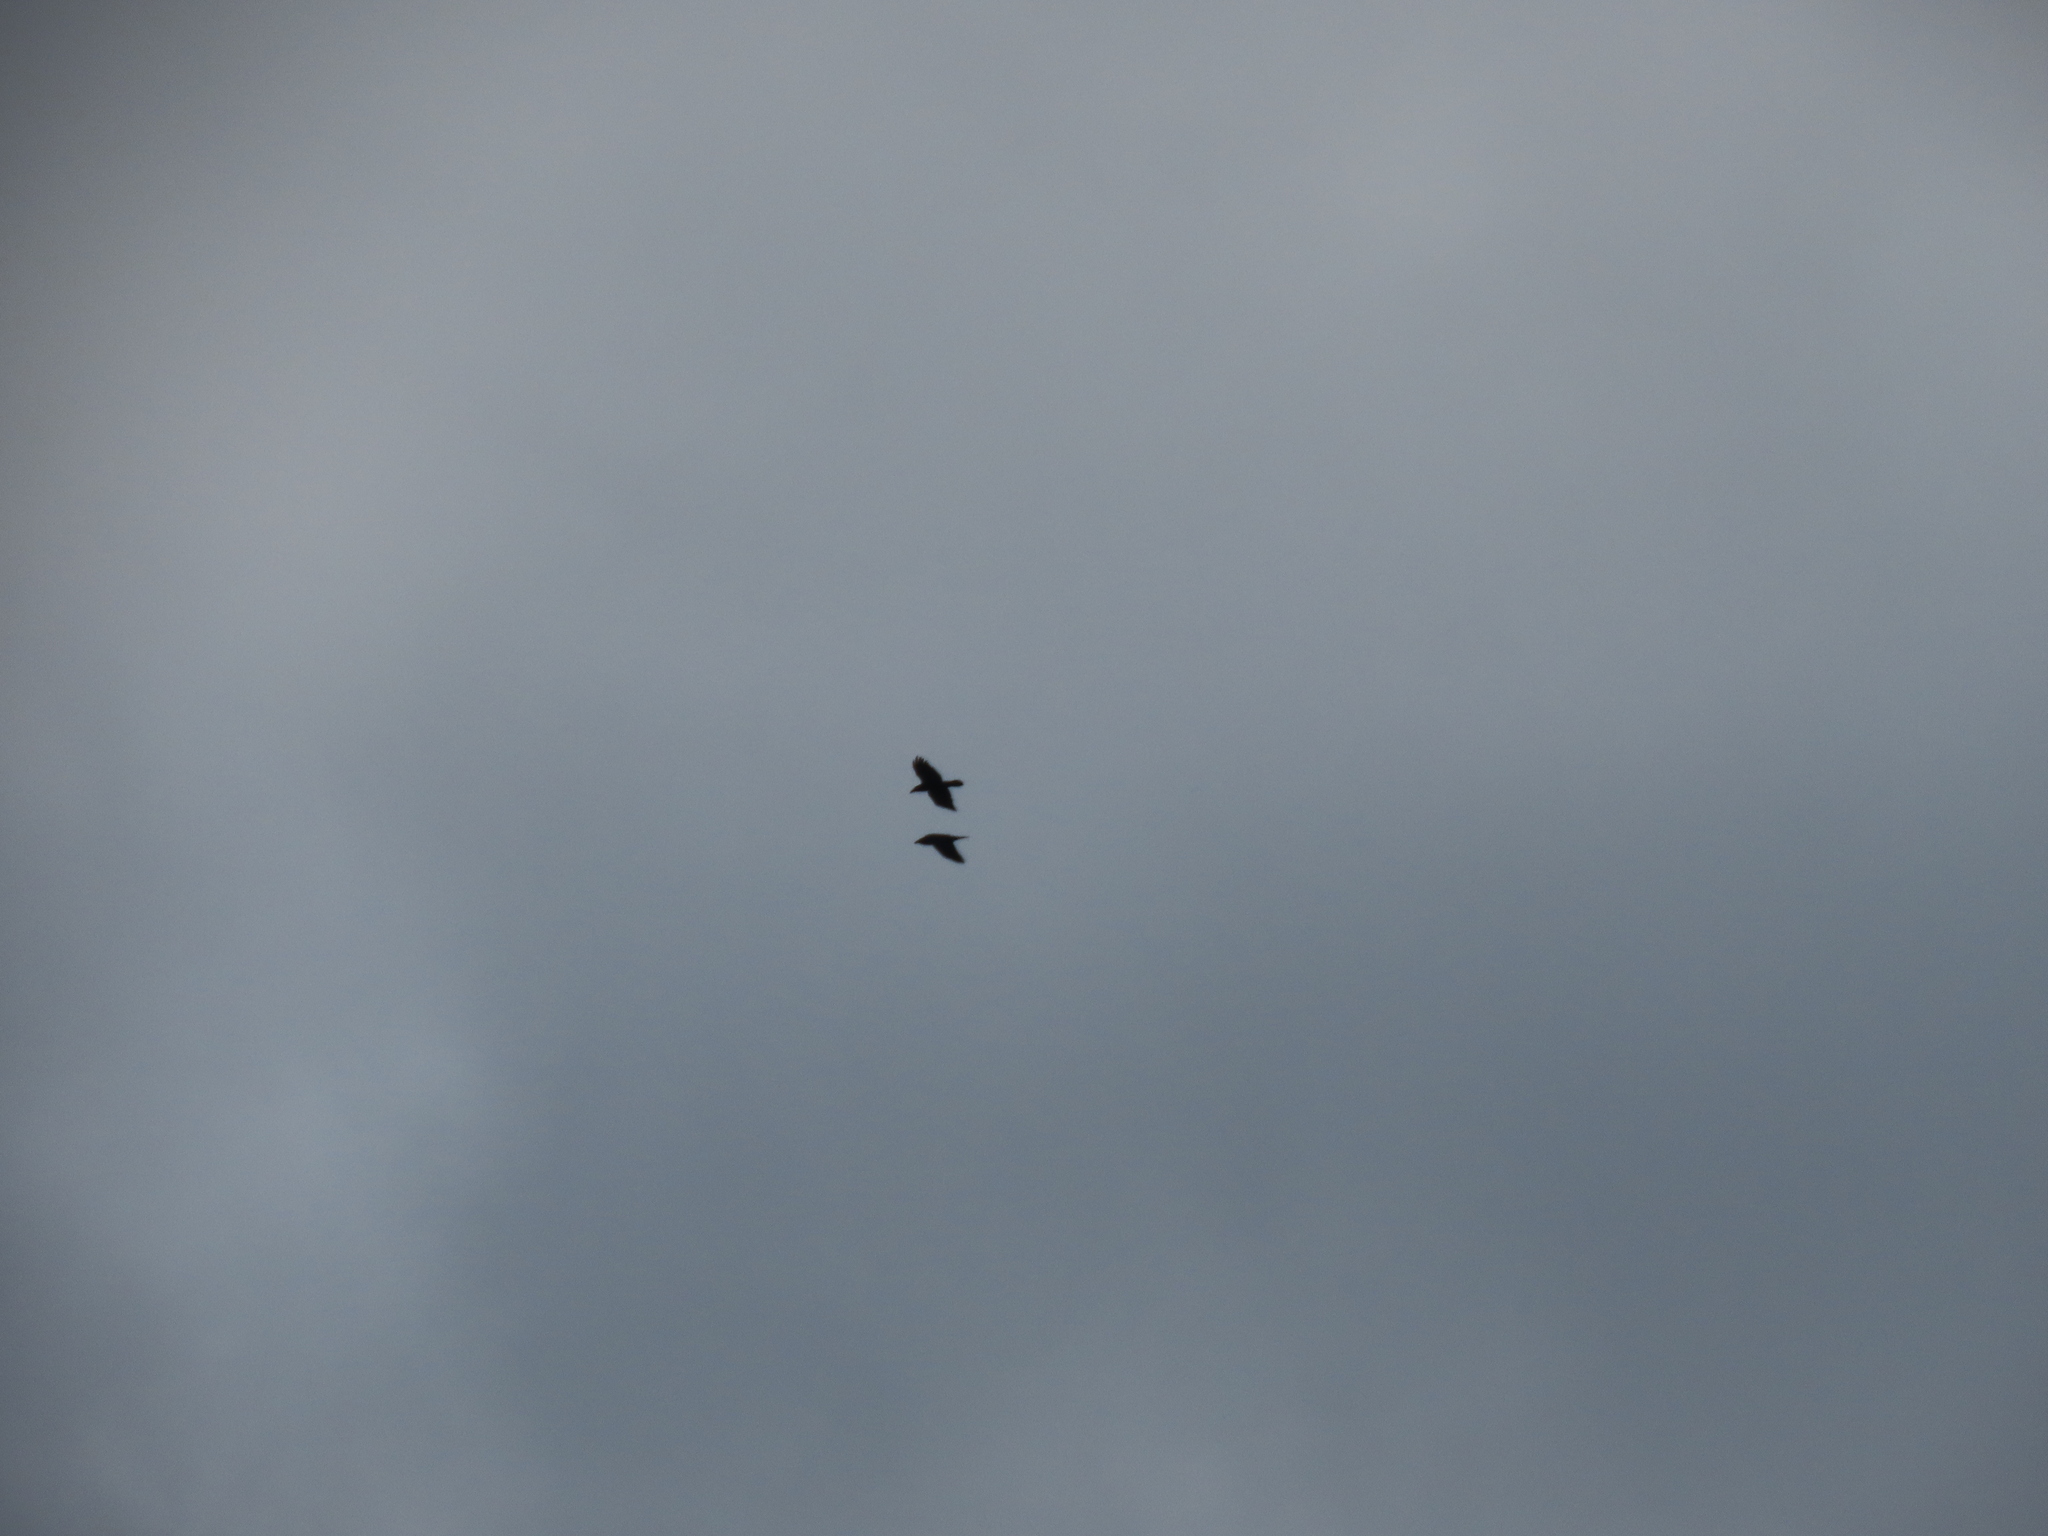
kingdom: Animalia
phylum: Chordata
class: Aves
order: Passeriformes
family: Corvidae
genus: Corvus
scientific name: Corvus corax
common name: Common raven
